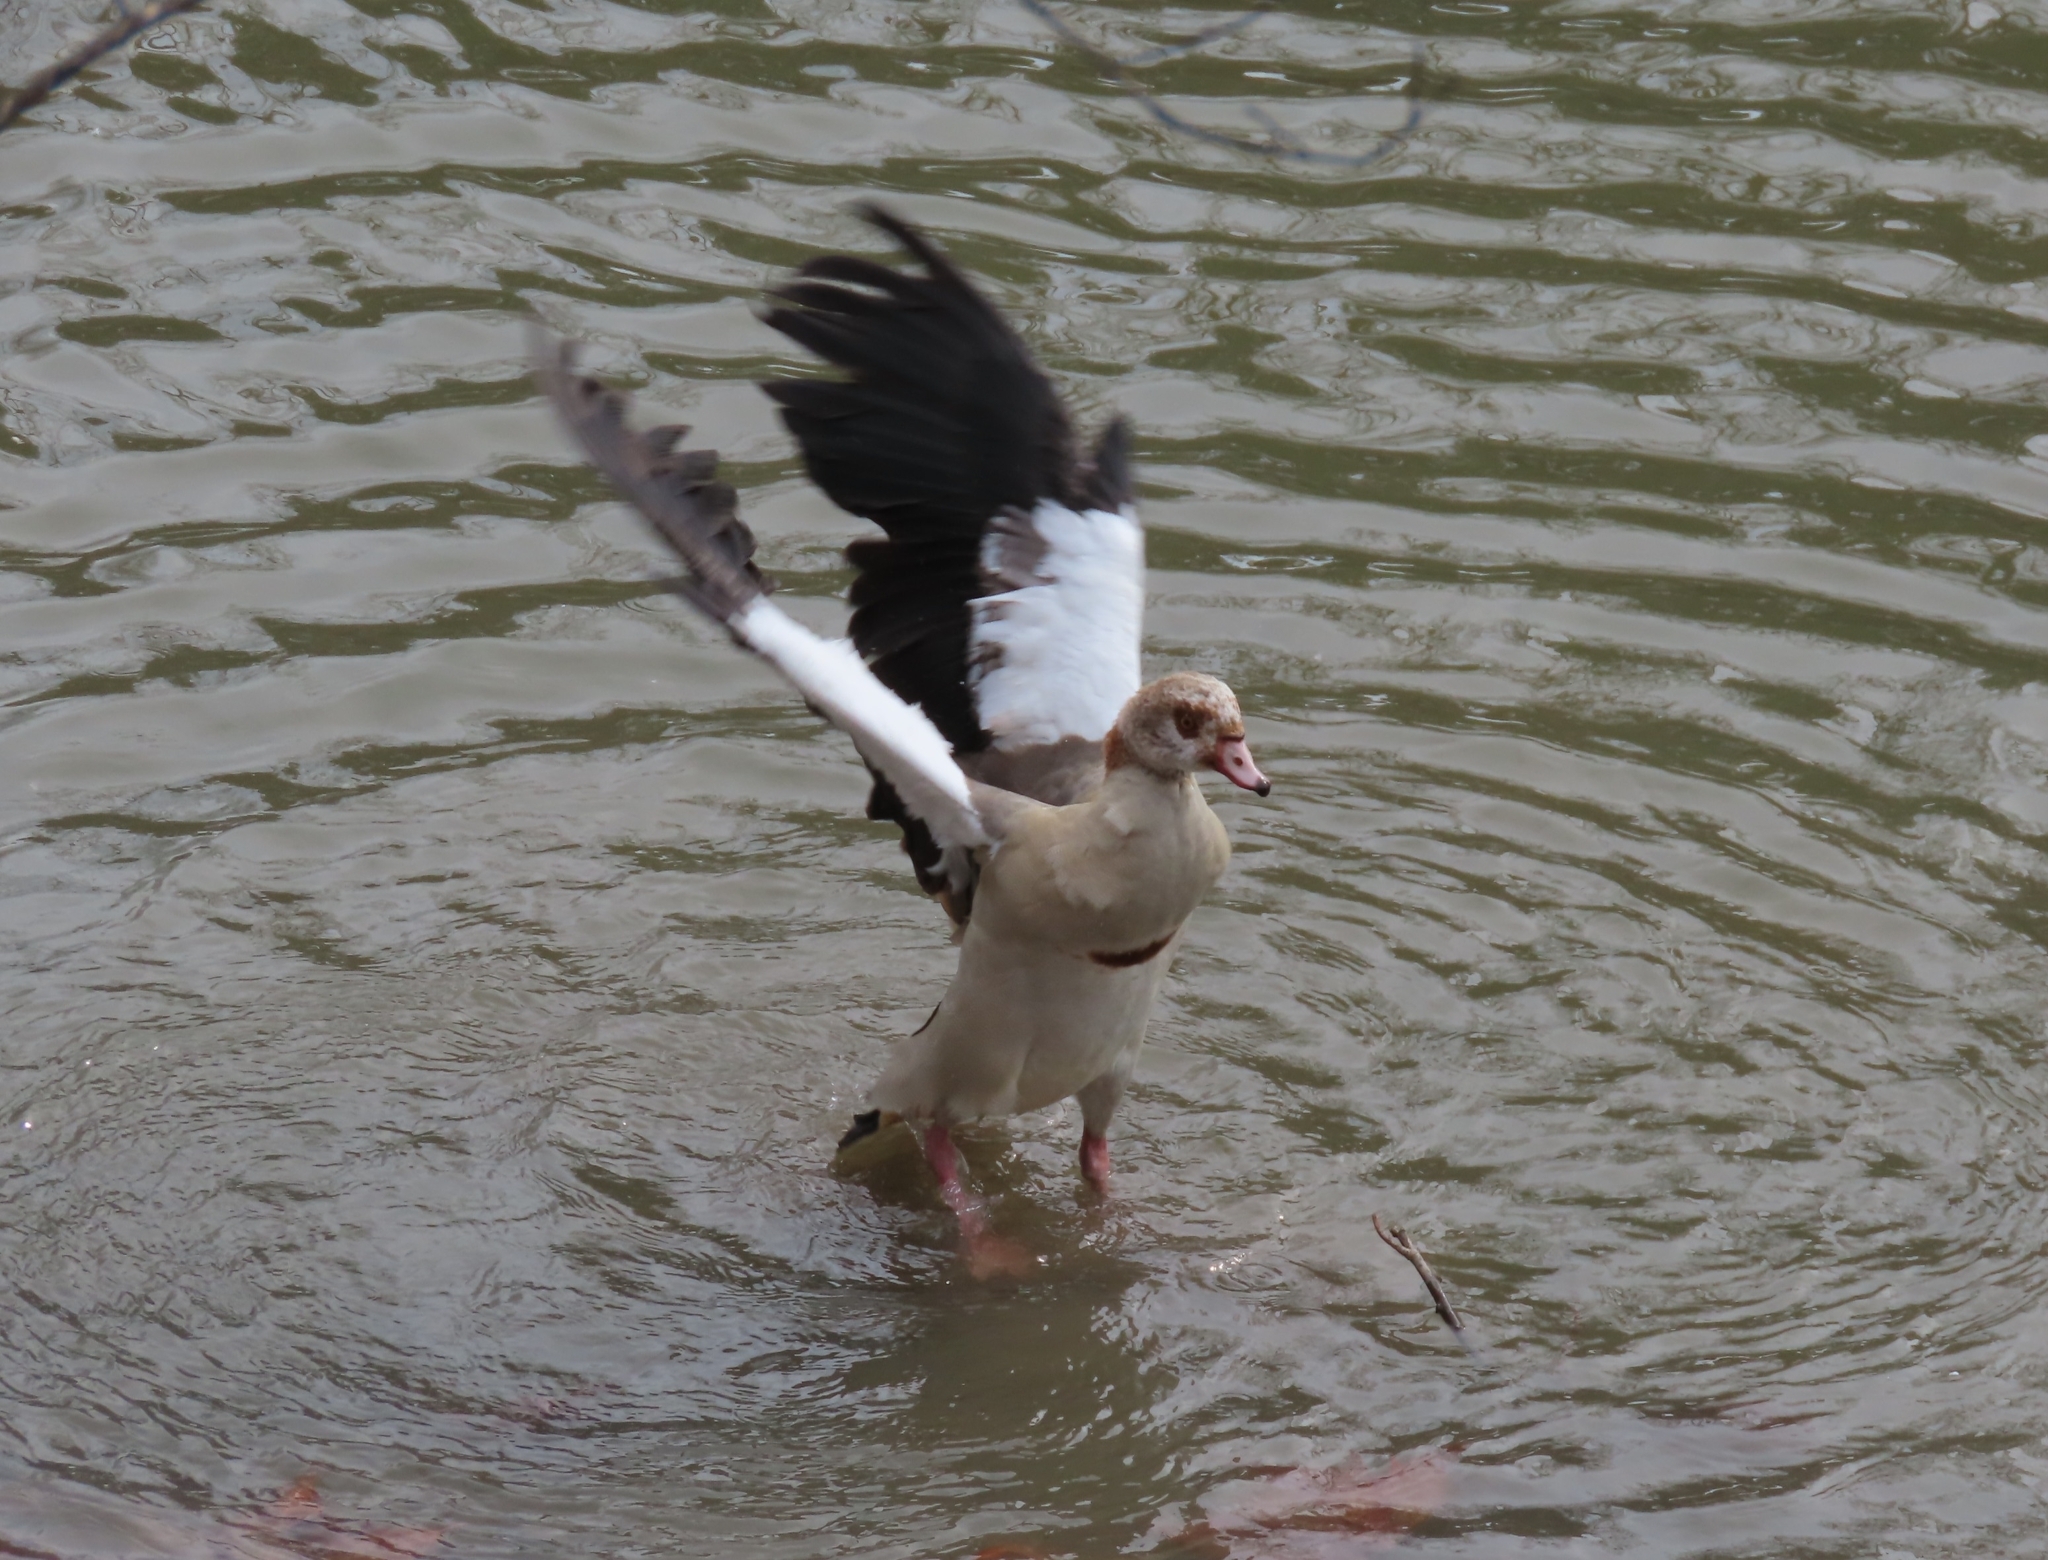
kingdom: Animalia
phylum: Chordata
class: Aves
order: Anseriformes
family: Anatidae
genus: Alopochen
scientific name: Alopochen aegyptiaca
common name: Egyptian goose
